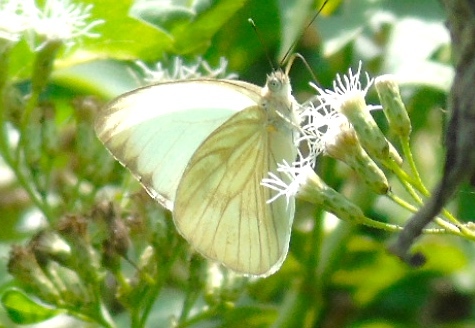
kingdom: Animalia
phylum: Arthropoda
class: Insecta
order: Lepidoptera
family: Pieridae
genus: Ascia
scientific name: Ascia monuste
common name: Great southern white
